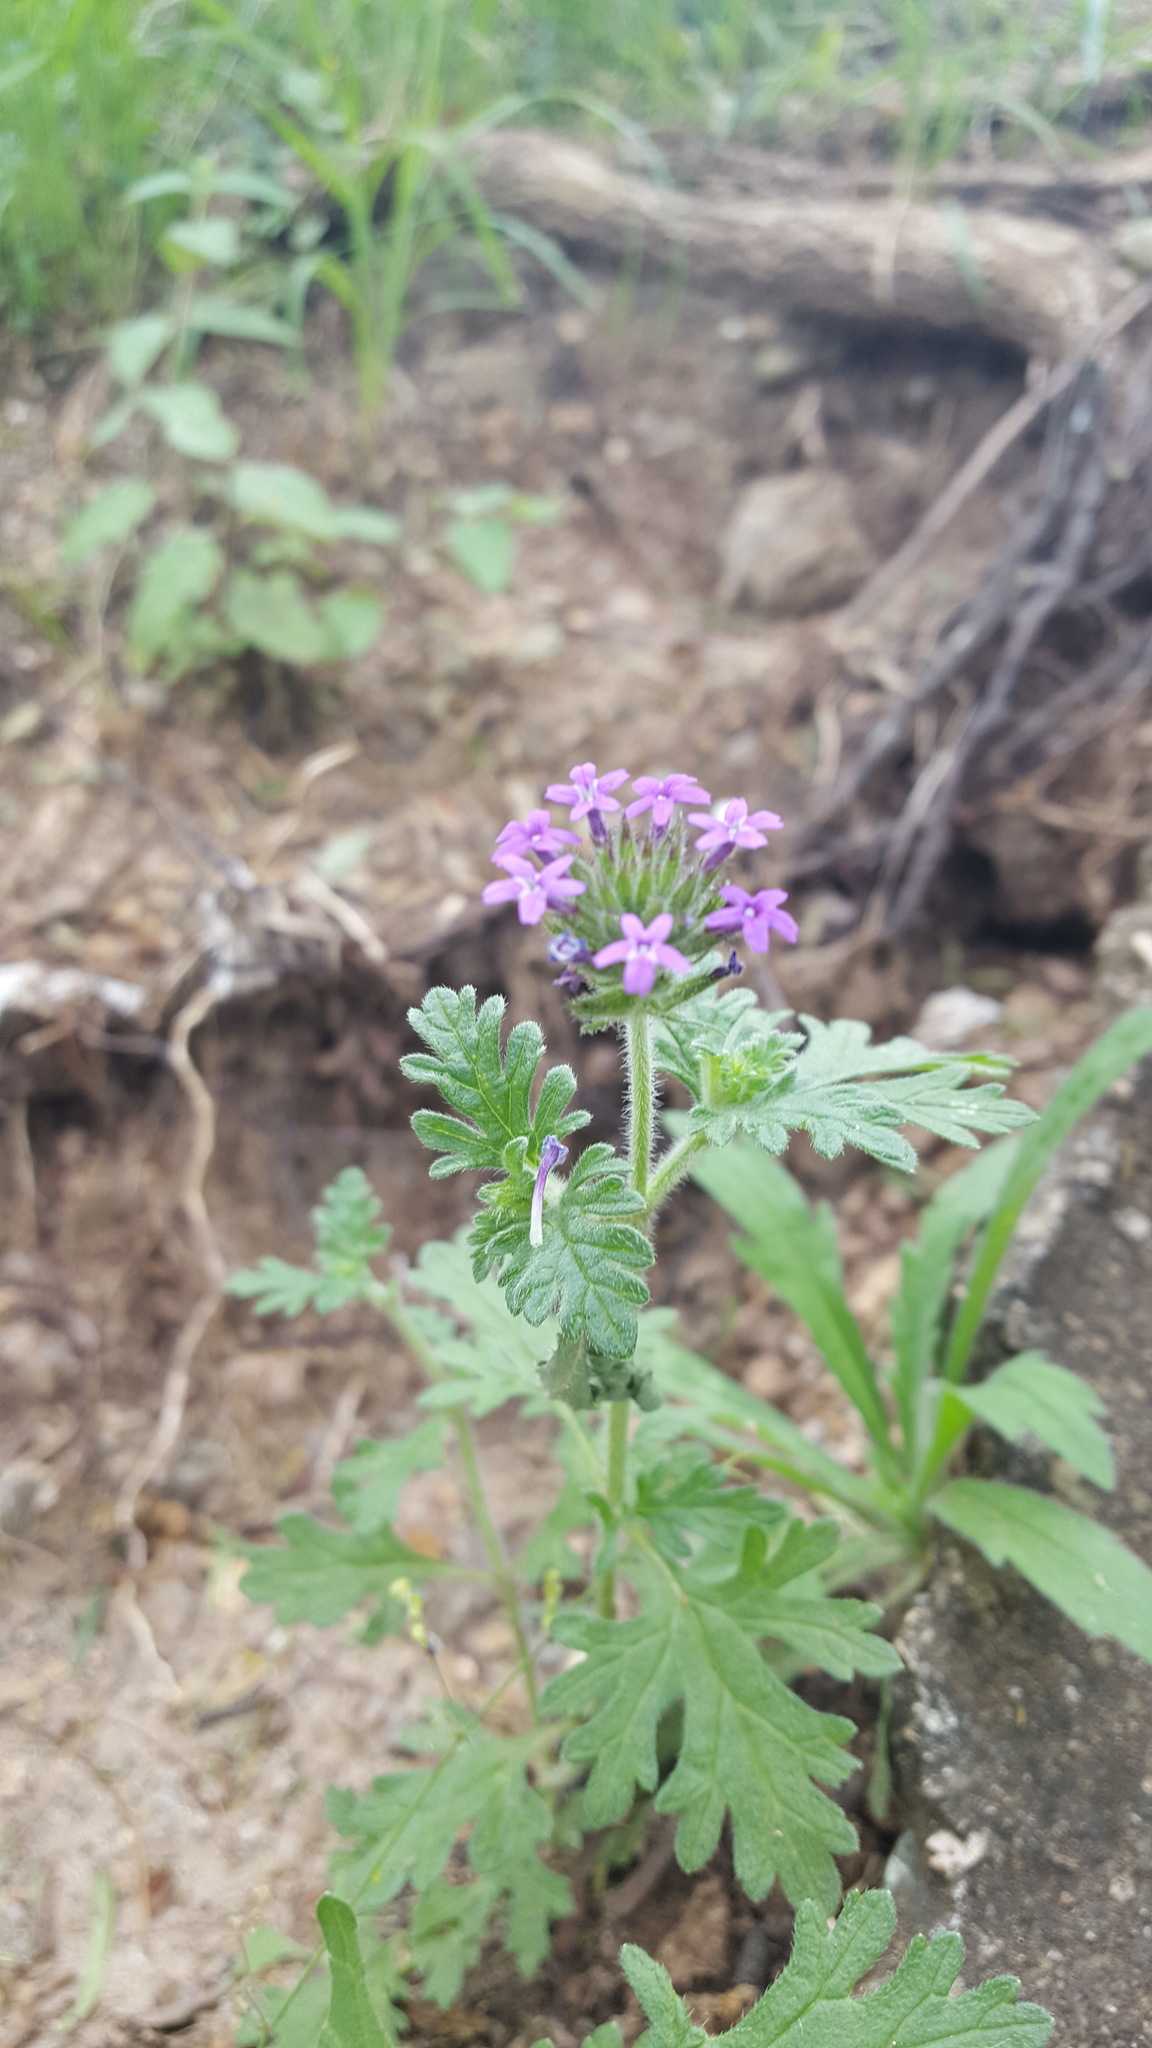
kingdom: Plantae
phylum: Tracheophyta
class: Magnoliopsida
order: Lamiales
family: Verbenaceae
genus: Verbena
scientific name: Verbena bipinnatifida
